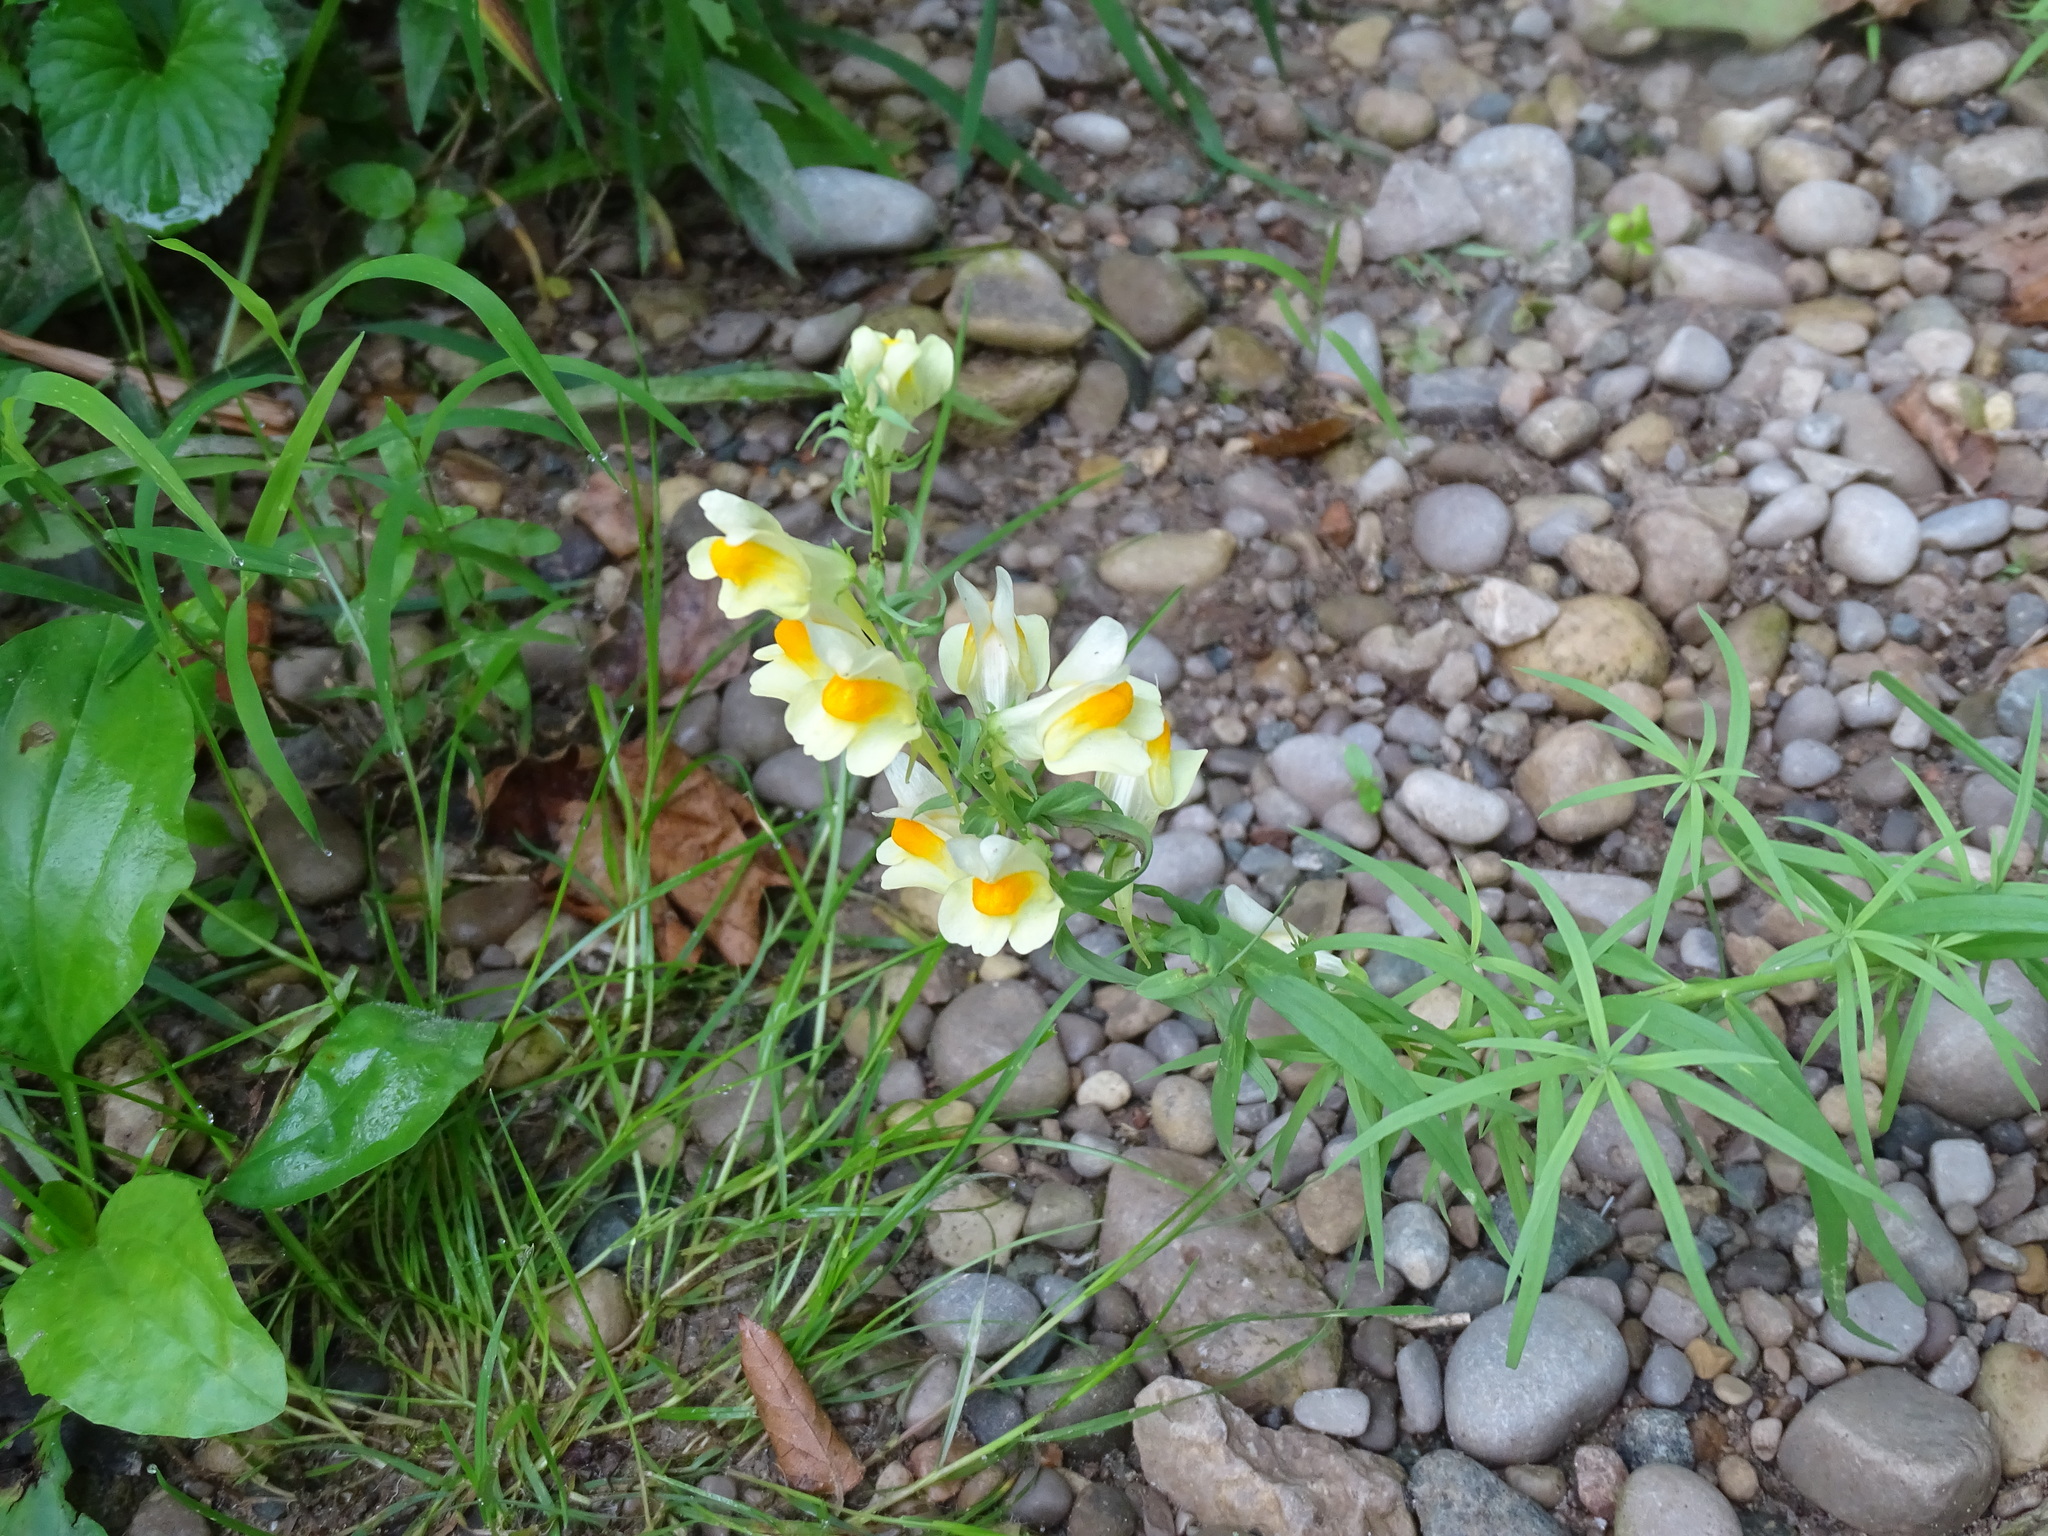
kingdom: Plantae
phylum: Tracheophyta
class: Magnoliopsida
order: Lamiales
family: Plantaginaceae
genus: Linaria
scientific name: Linaria vulgaris
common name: Butter and eggs
